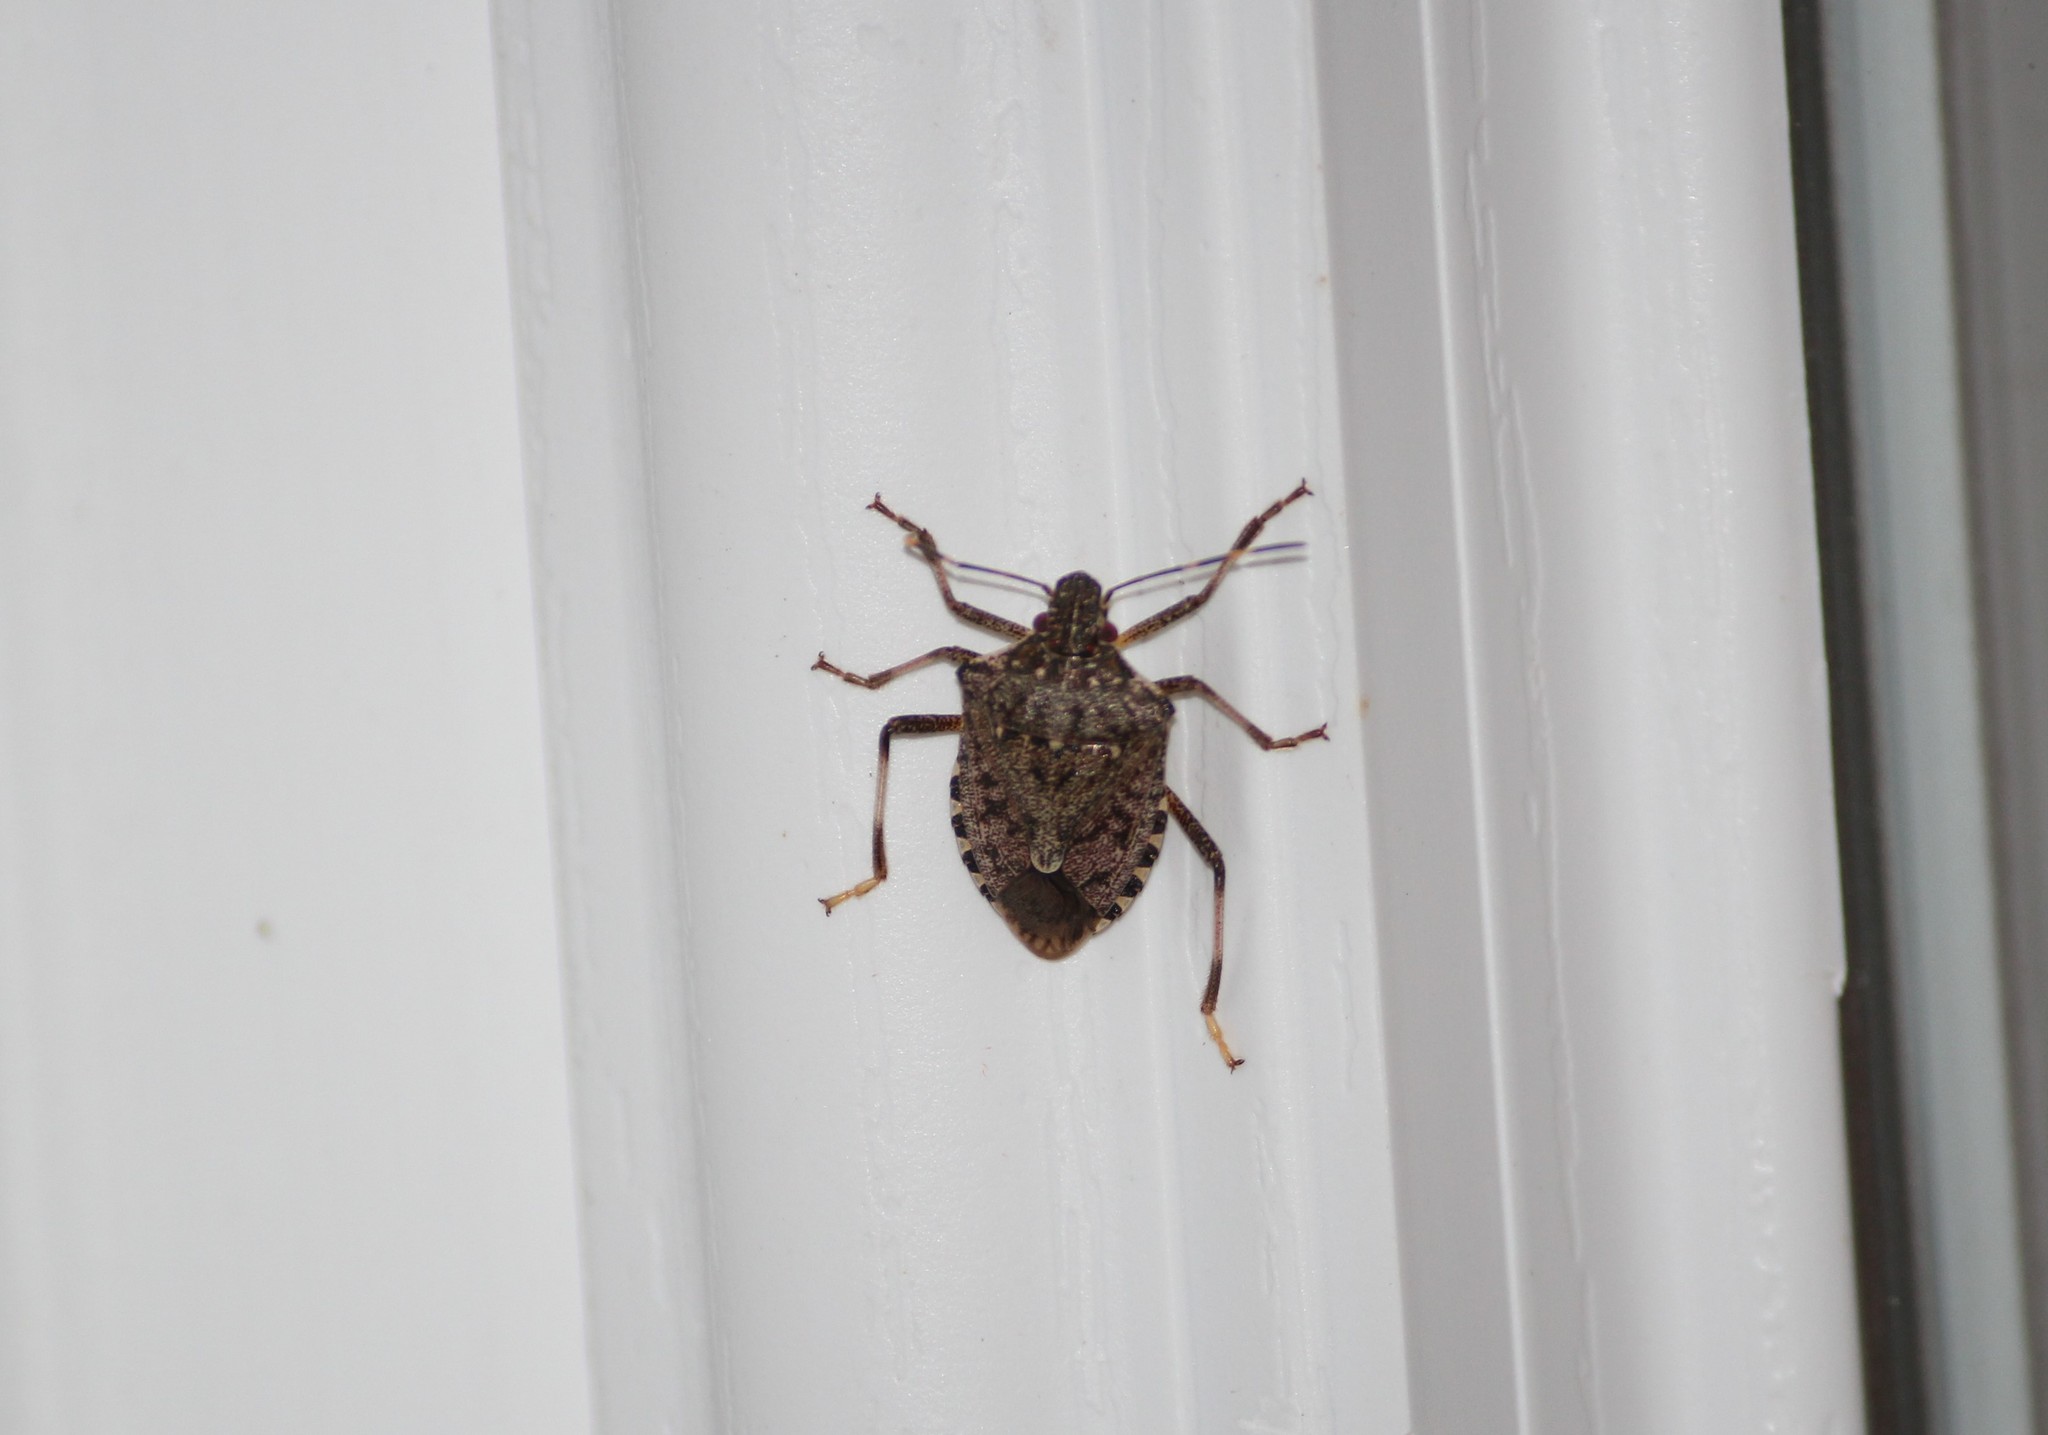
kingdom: Animalia
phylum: Arthropoda
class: Insecta
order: Hemiptera
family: Pentatomidae
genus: Halyomorpha
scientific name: Halyomorpha halys
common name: Brown marmorated stink bug
